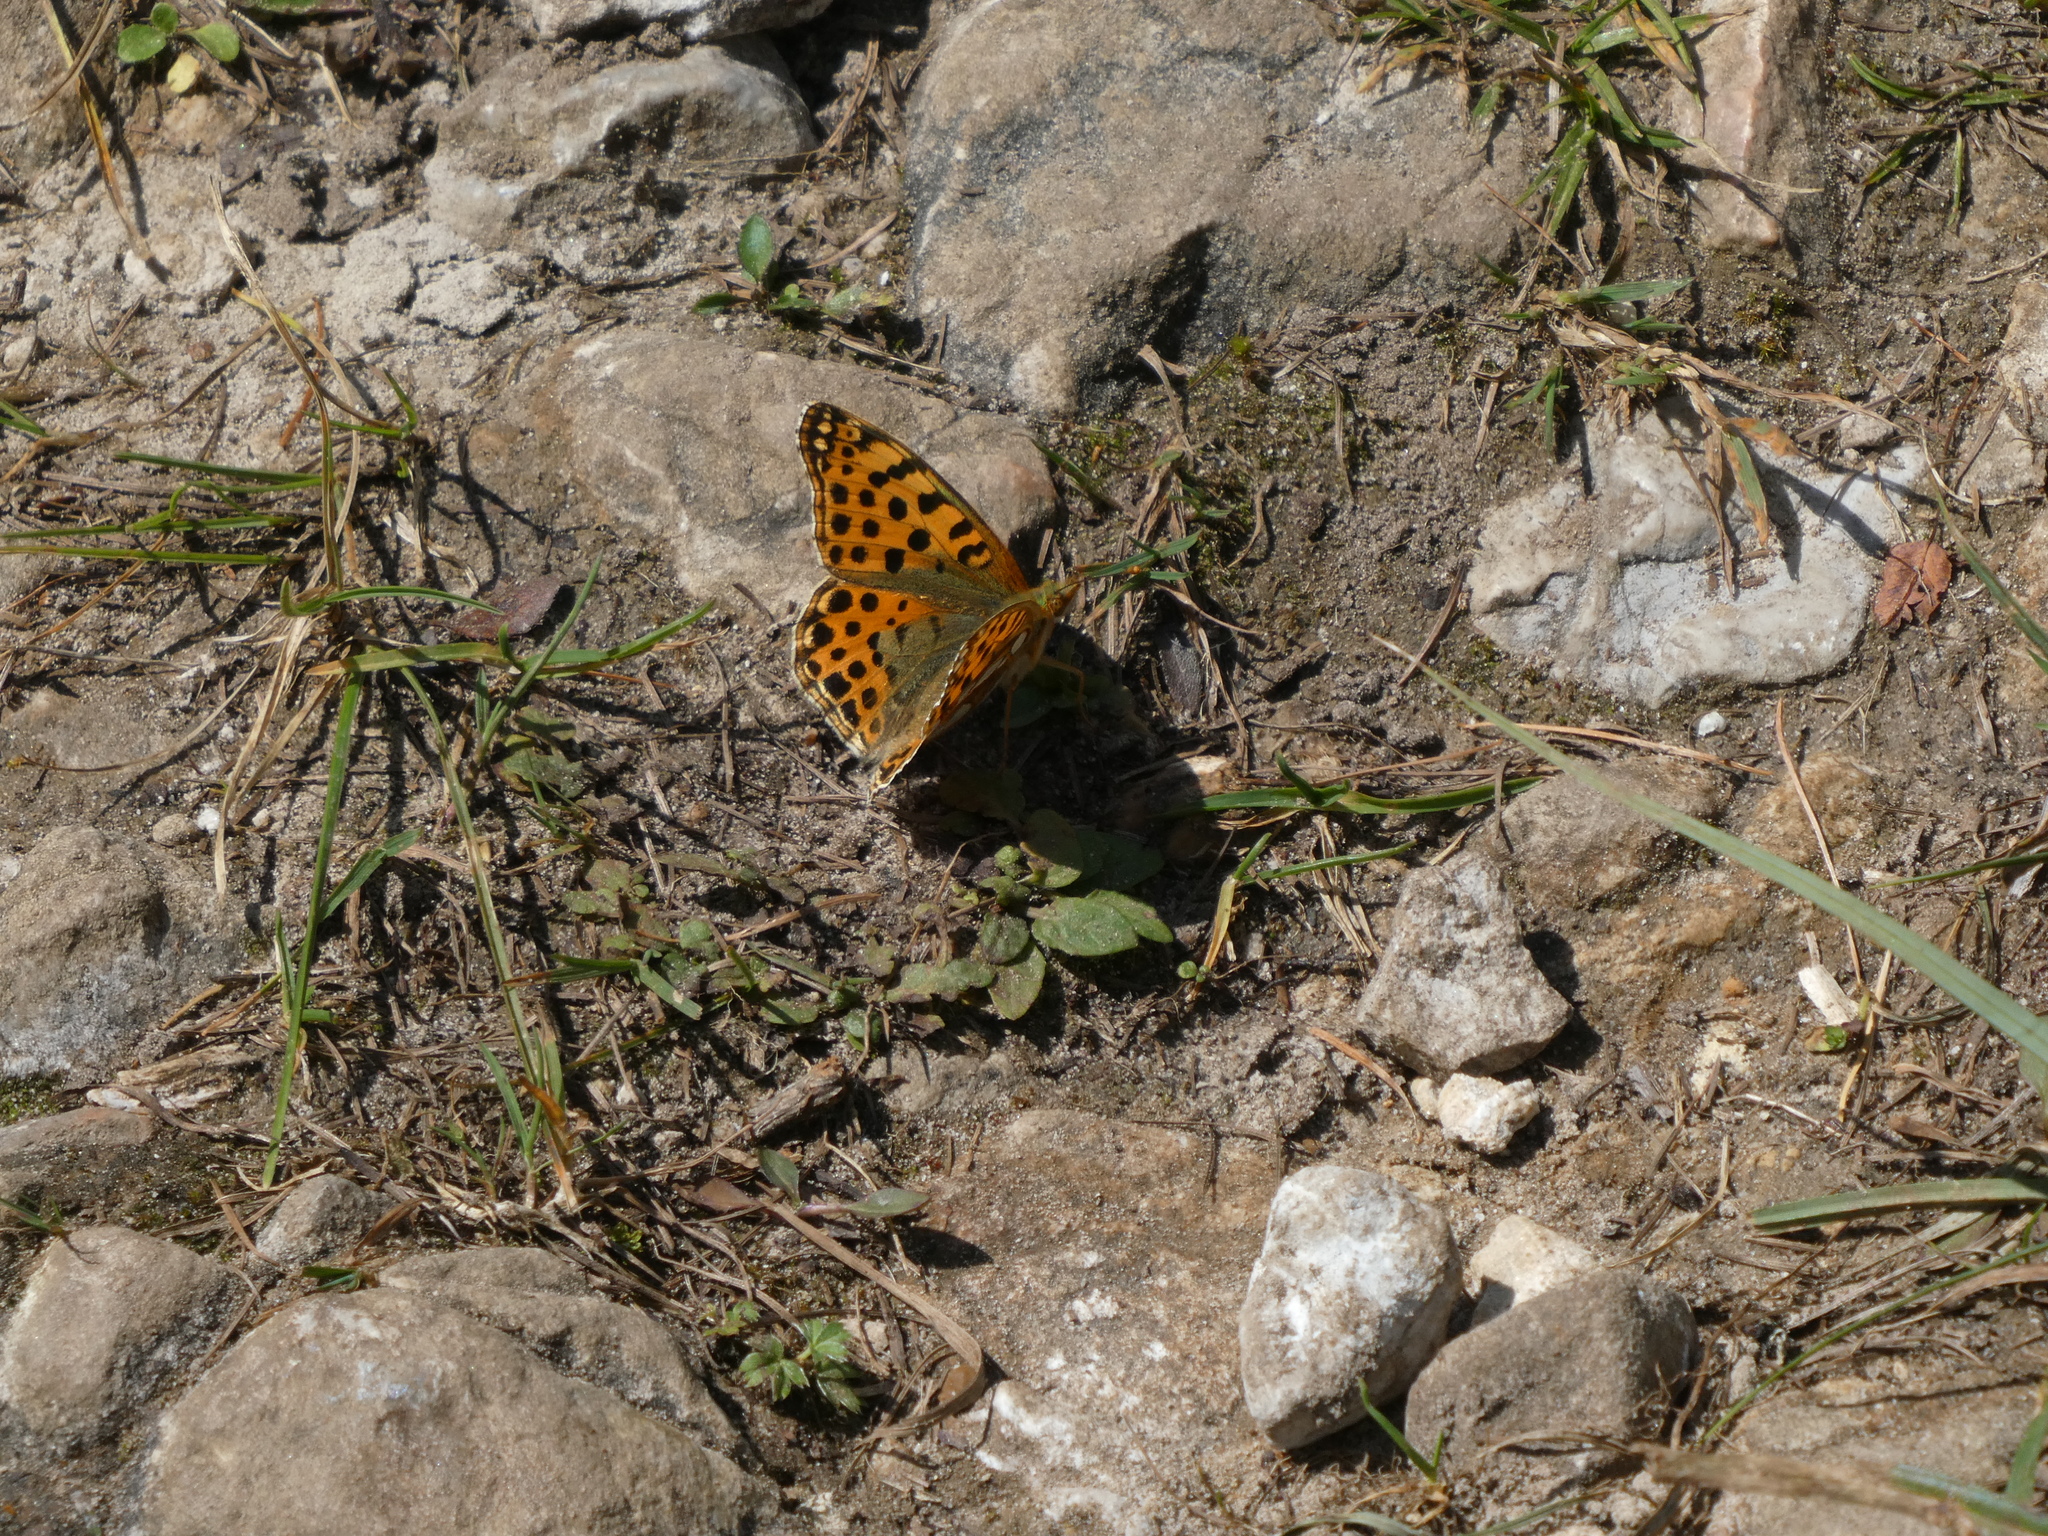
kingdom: Animalia
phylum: Arthropoda
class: Insecta
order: Lepidoptera
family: Nymphalidae
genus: Issoria
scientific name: Issoria lathonia
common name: Queen of spain fritillary
